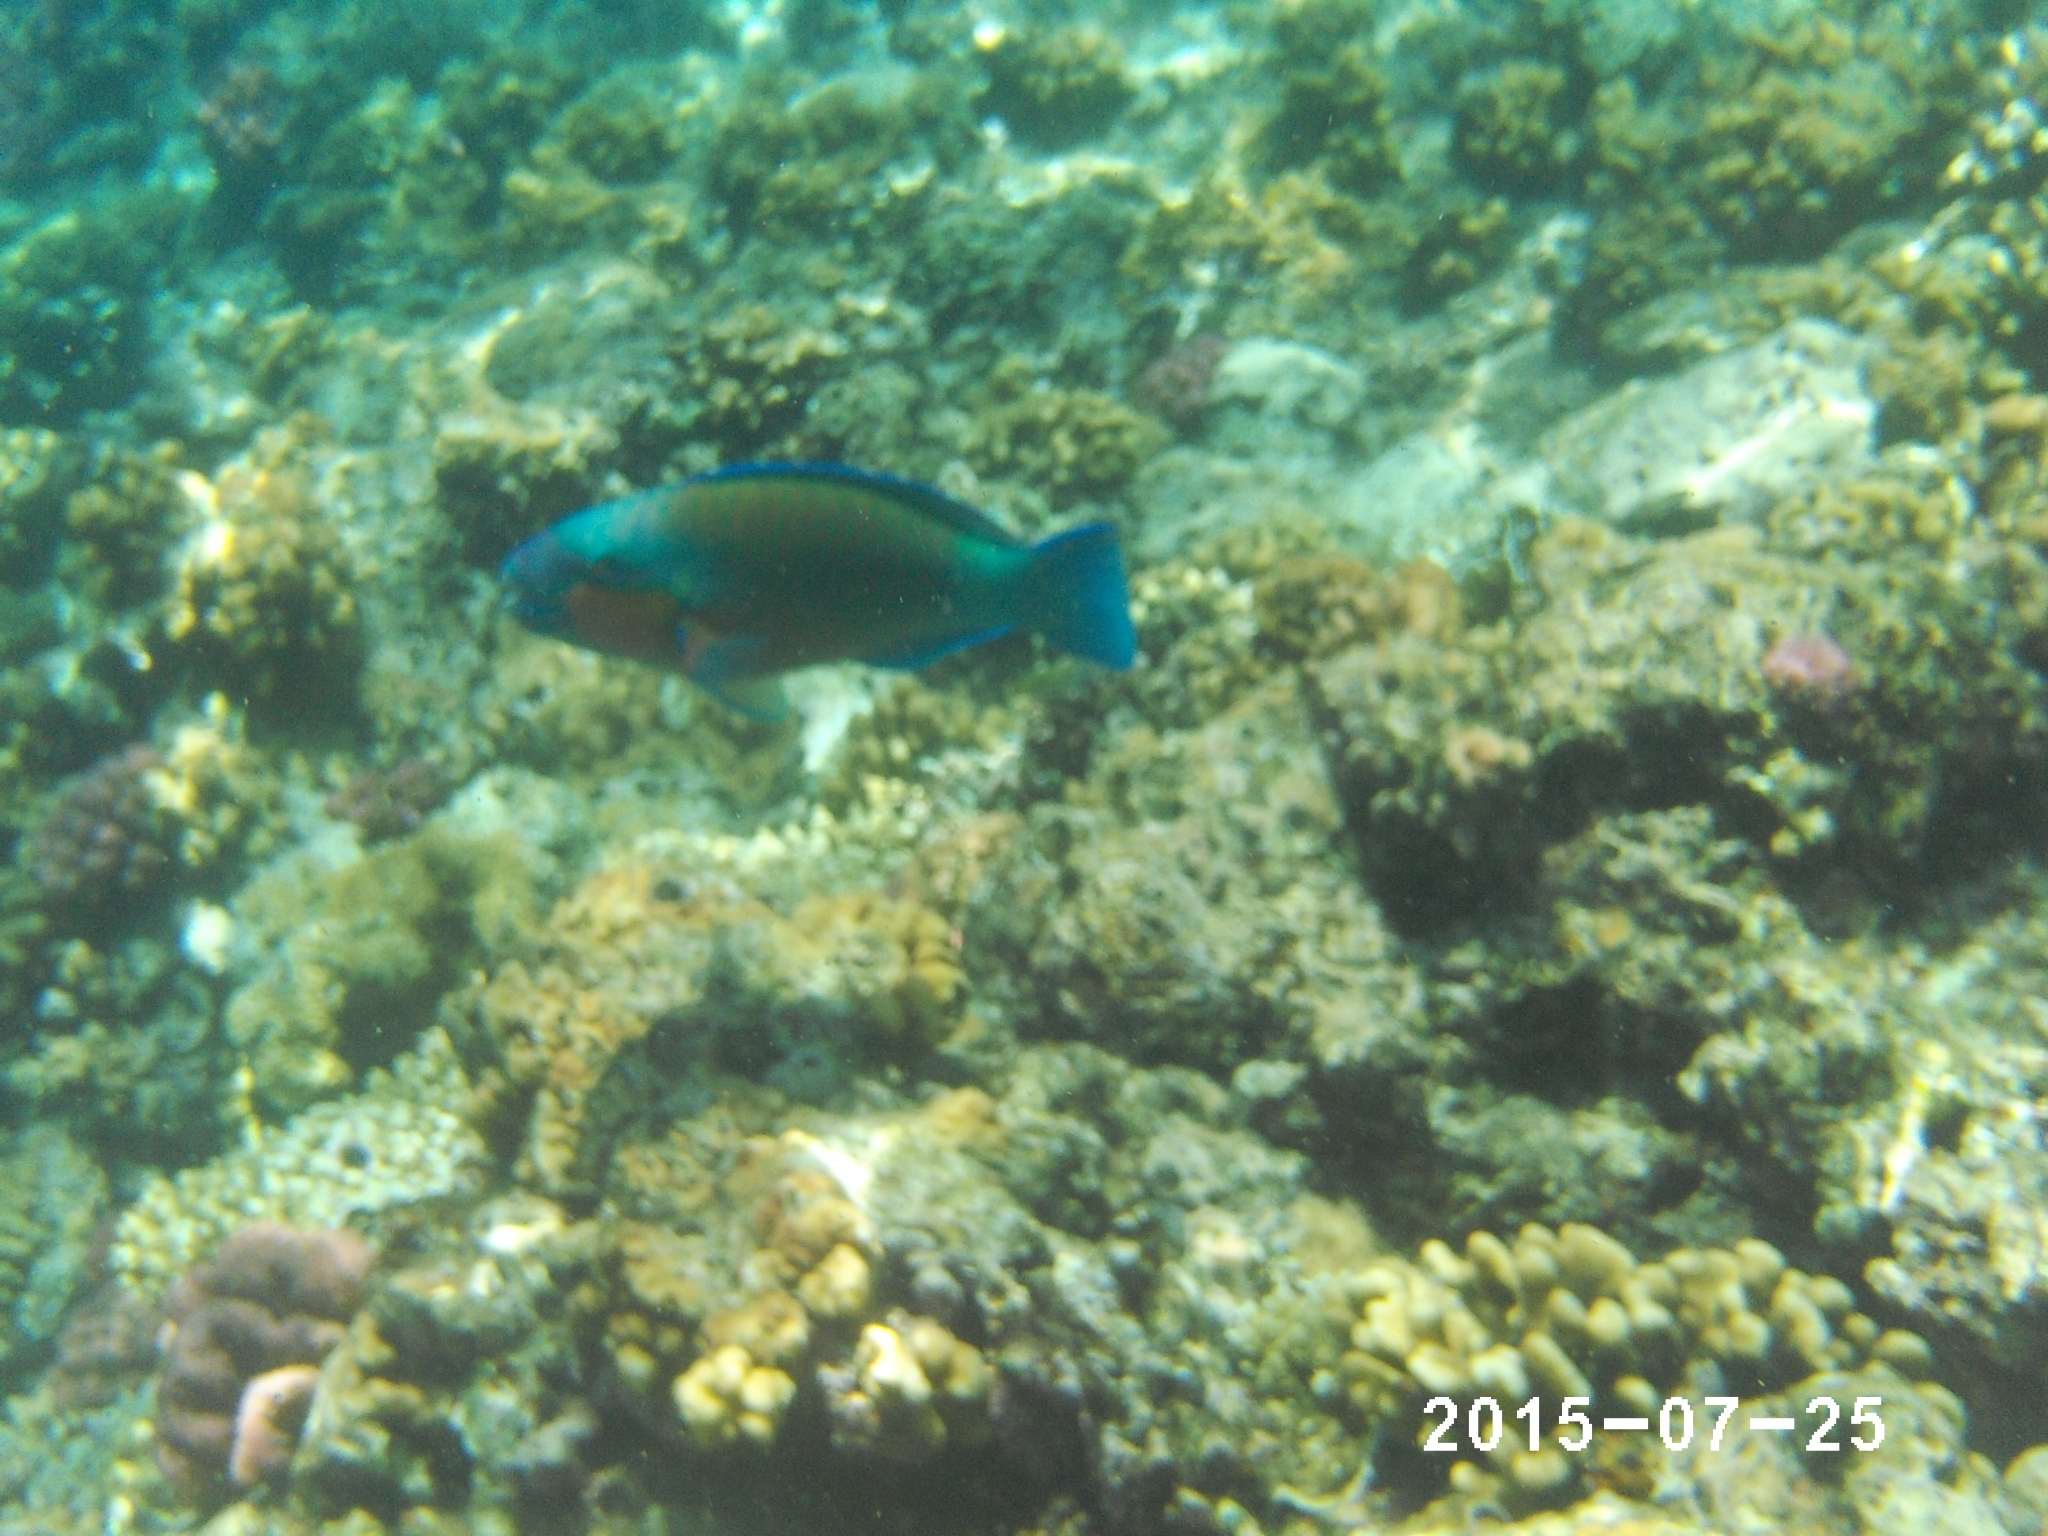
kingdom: Animalia
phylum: Chordata
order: Perciformes
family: Scaridae
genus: Chlorurus
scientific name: Chlorurus sordidus
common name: Bullethead parrotfish
